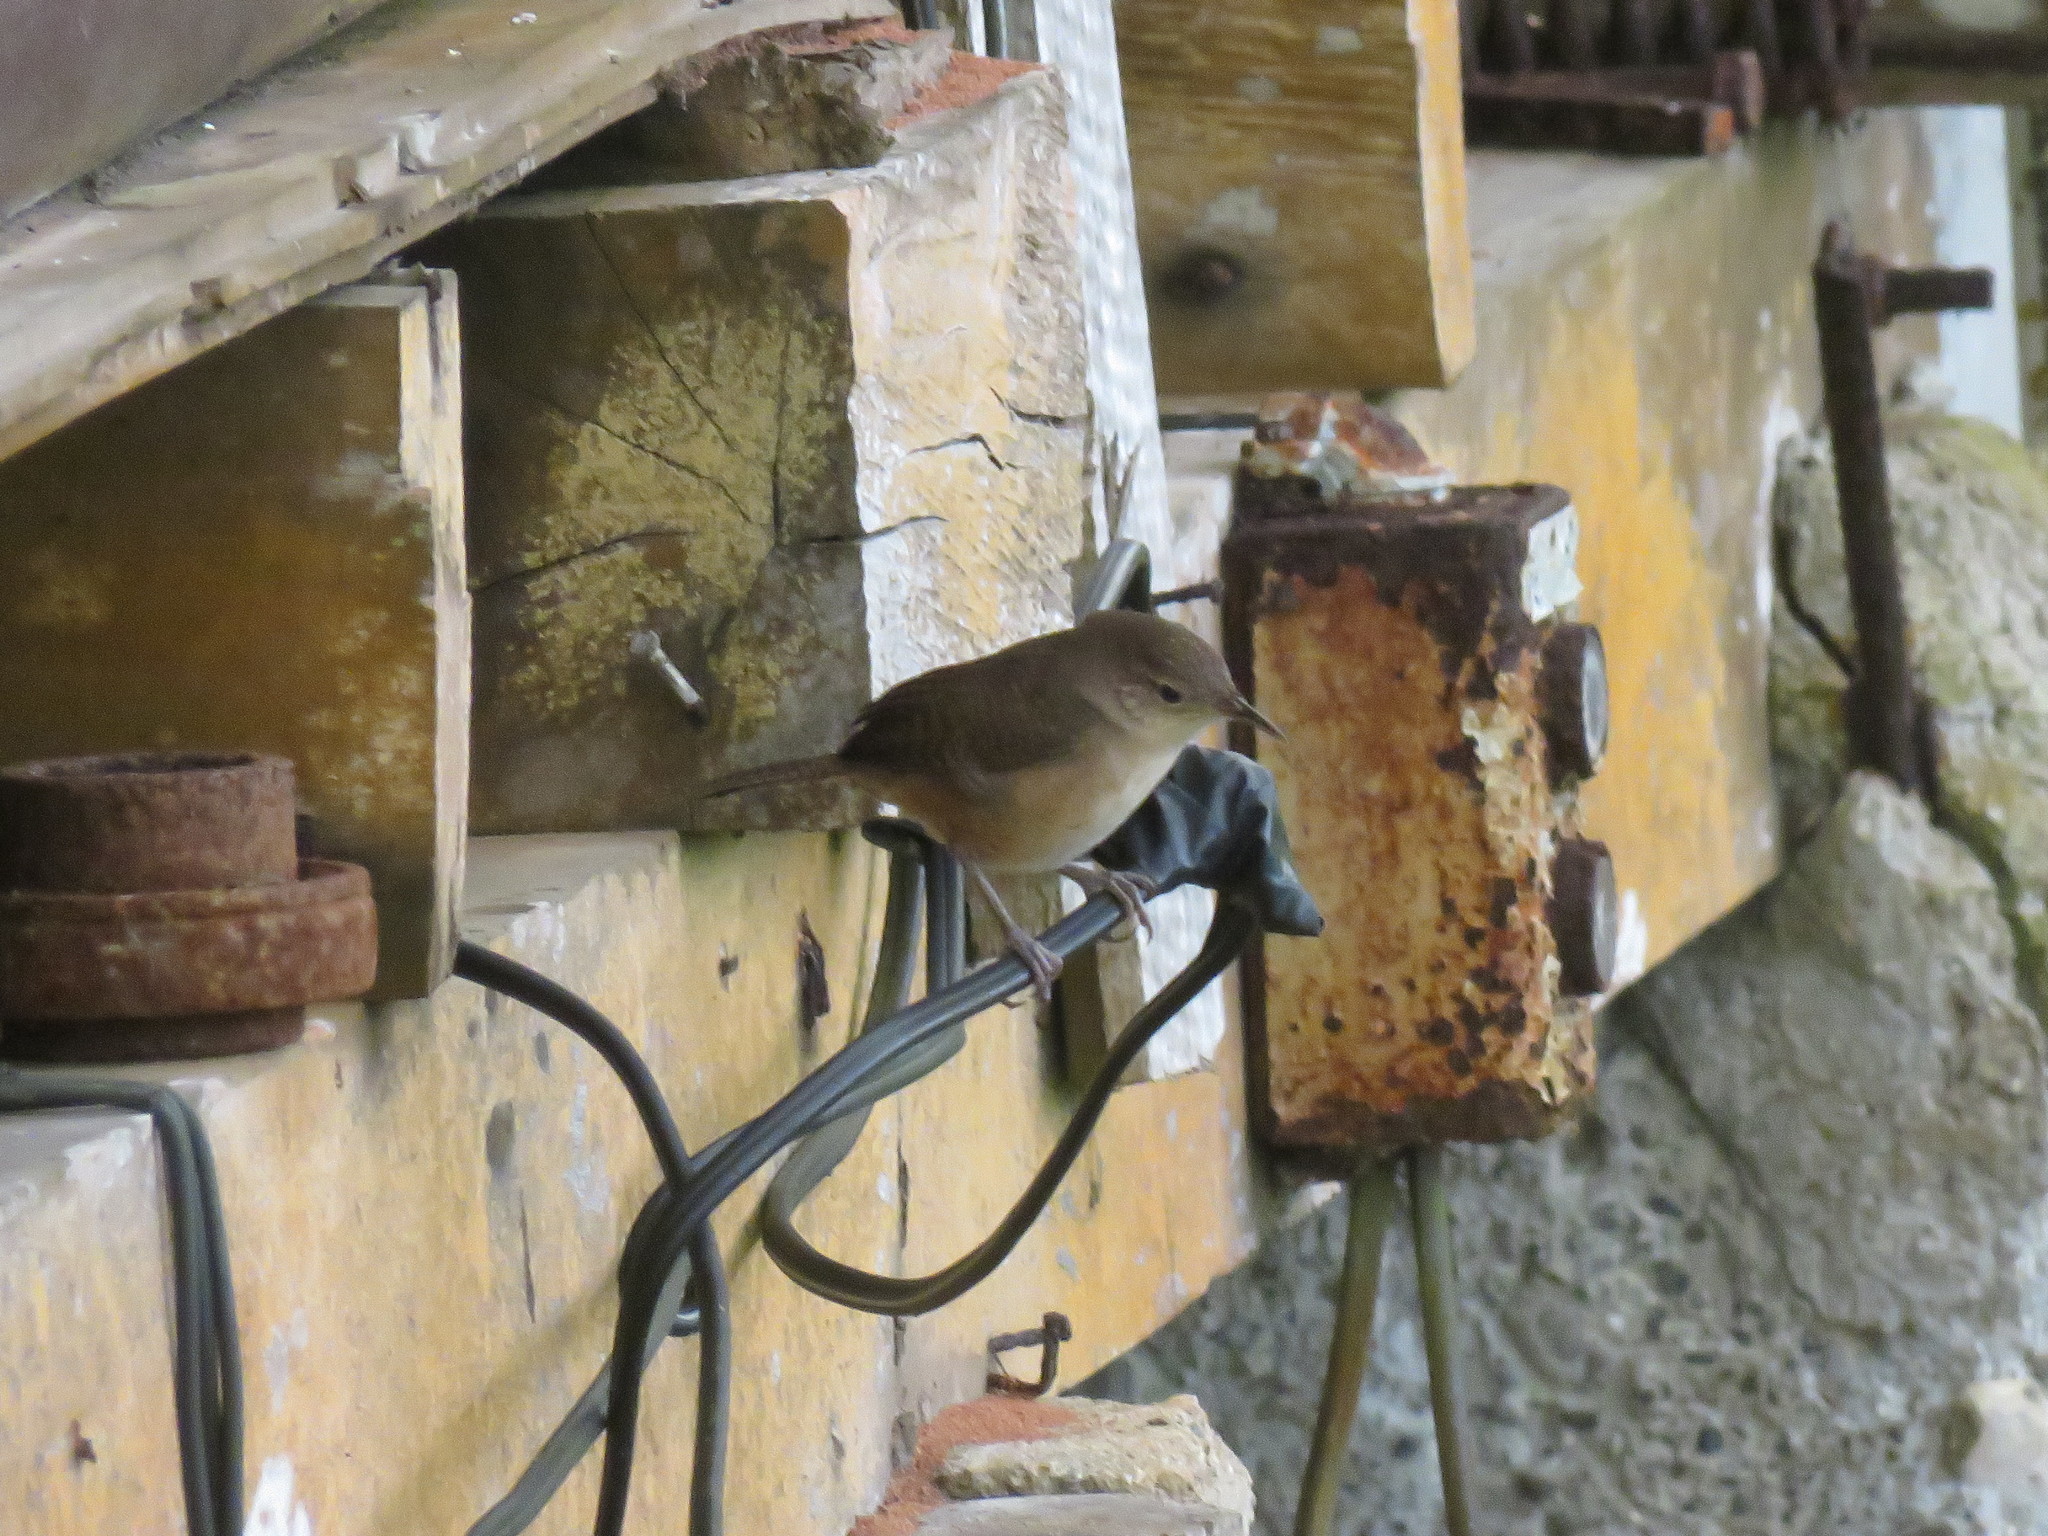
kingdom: Animalia
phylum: Chordata
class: Aves
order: Passeriformes
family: Troglodytidae
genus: Troglodytes
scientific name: Troglodytes aedon
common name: House wren
